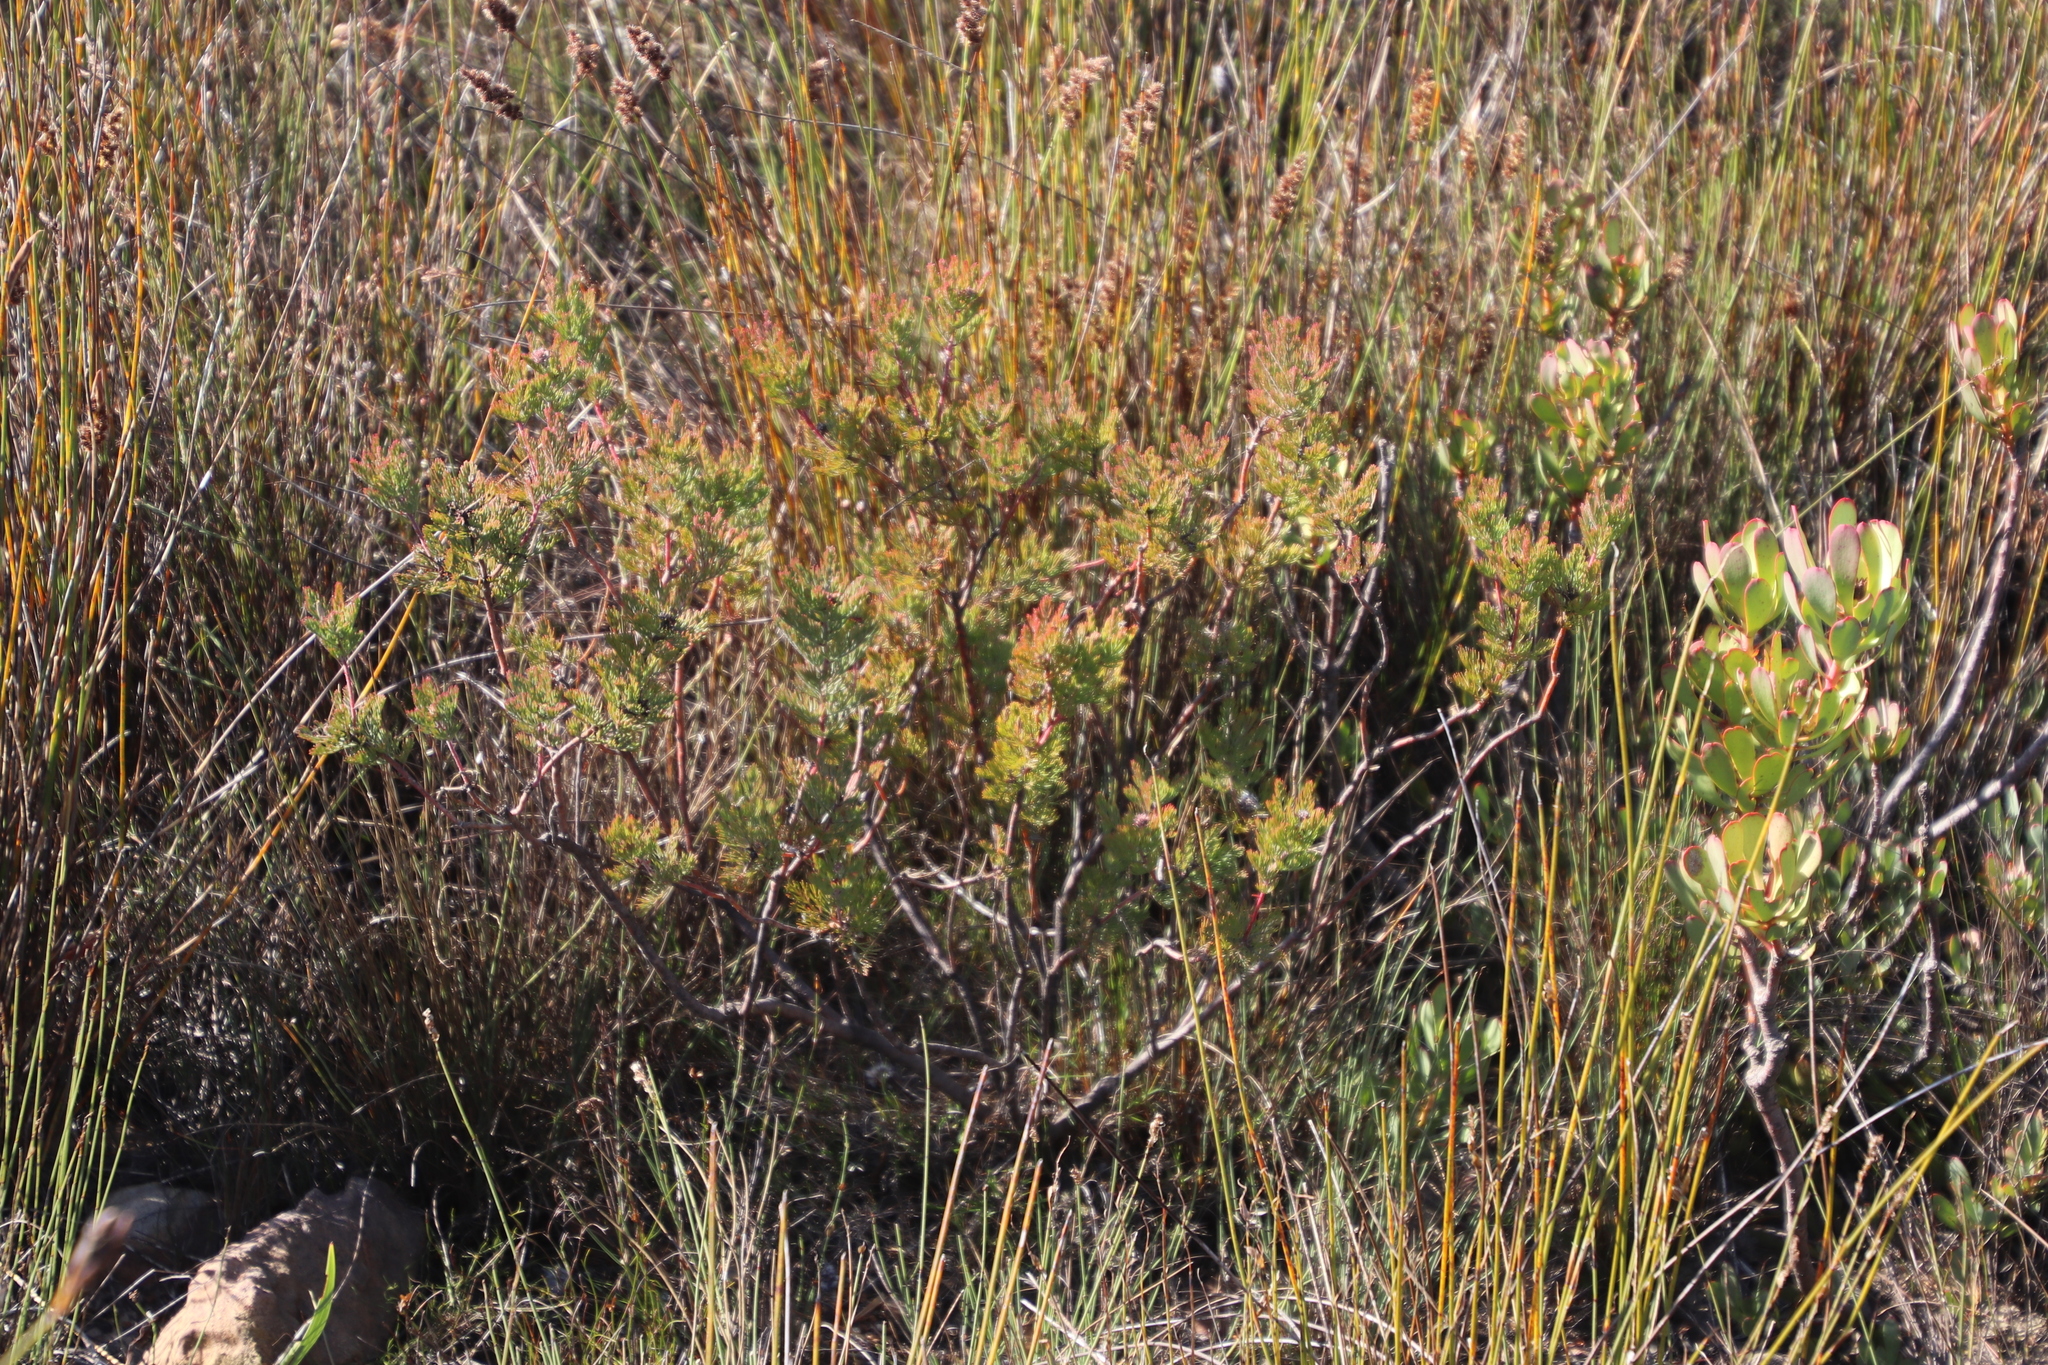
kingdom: Plantae
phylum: Tracheophyta
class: Magnoliopsida
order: Proteales
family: Proteaceae
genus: Serruria
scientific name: Serruria pedunculata
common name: Fan-leaf spiderhead
